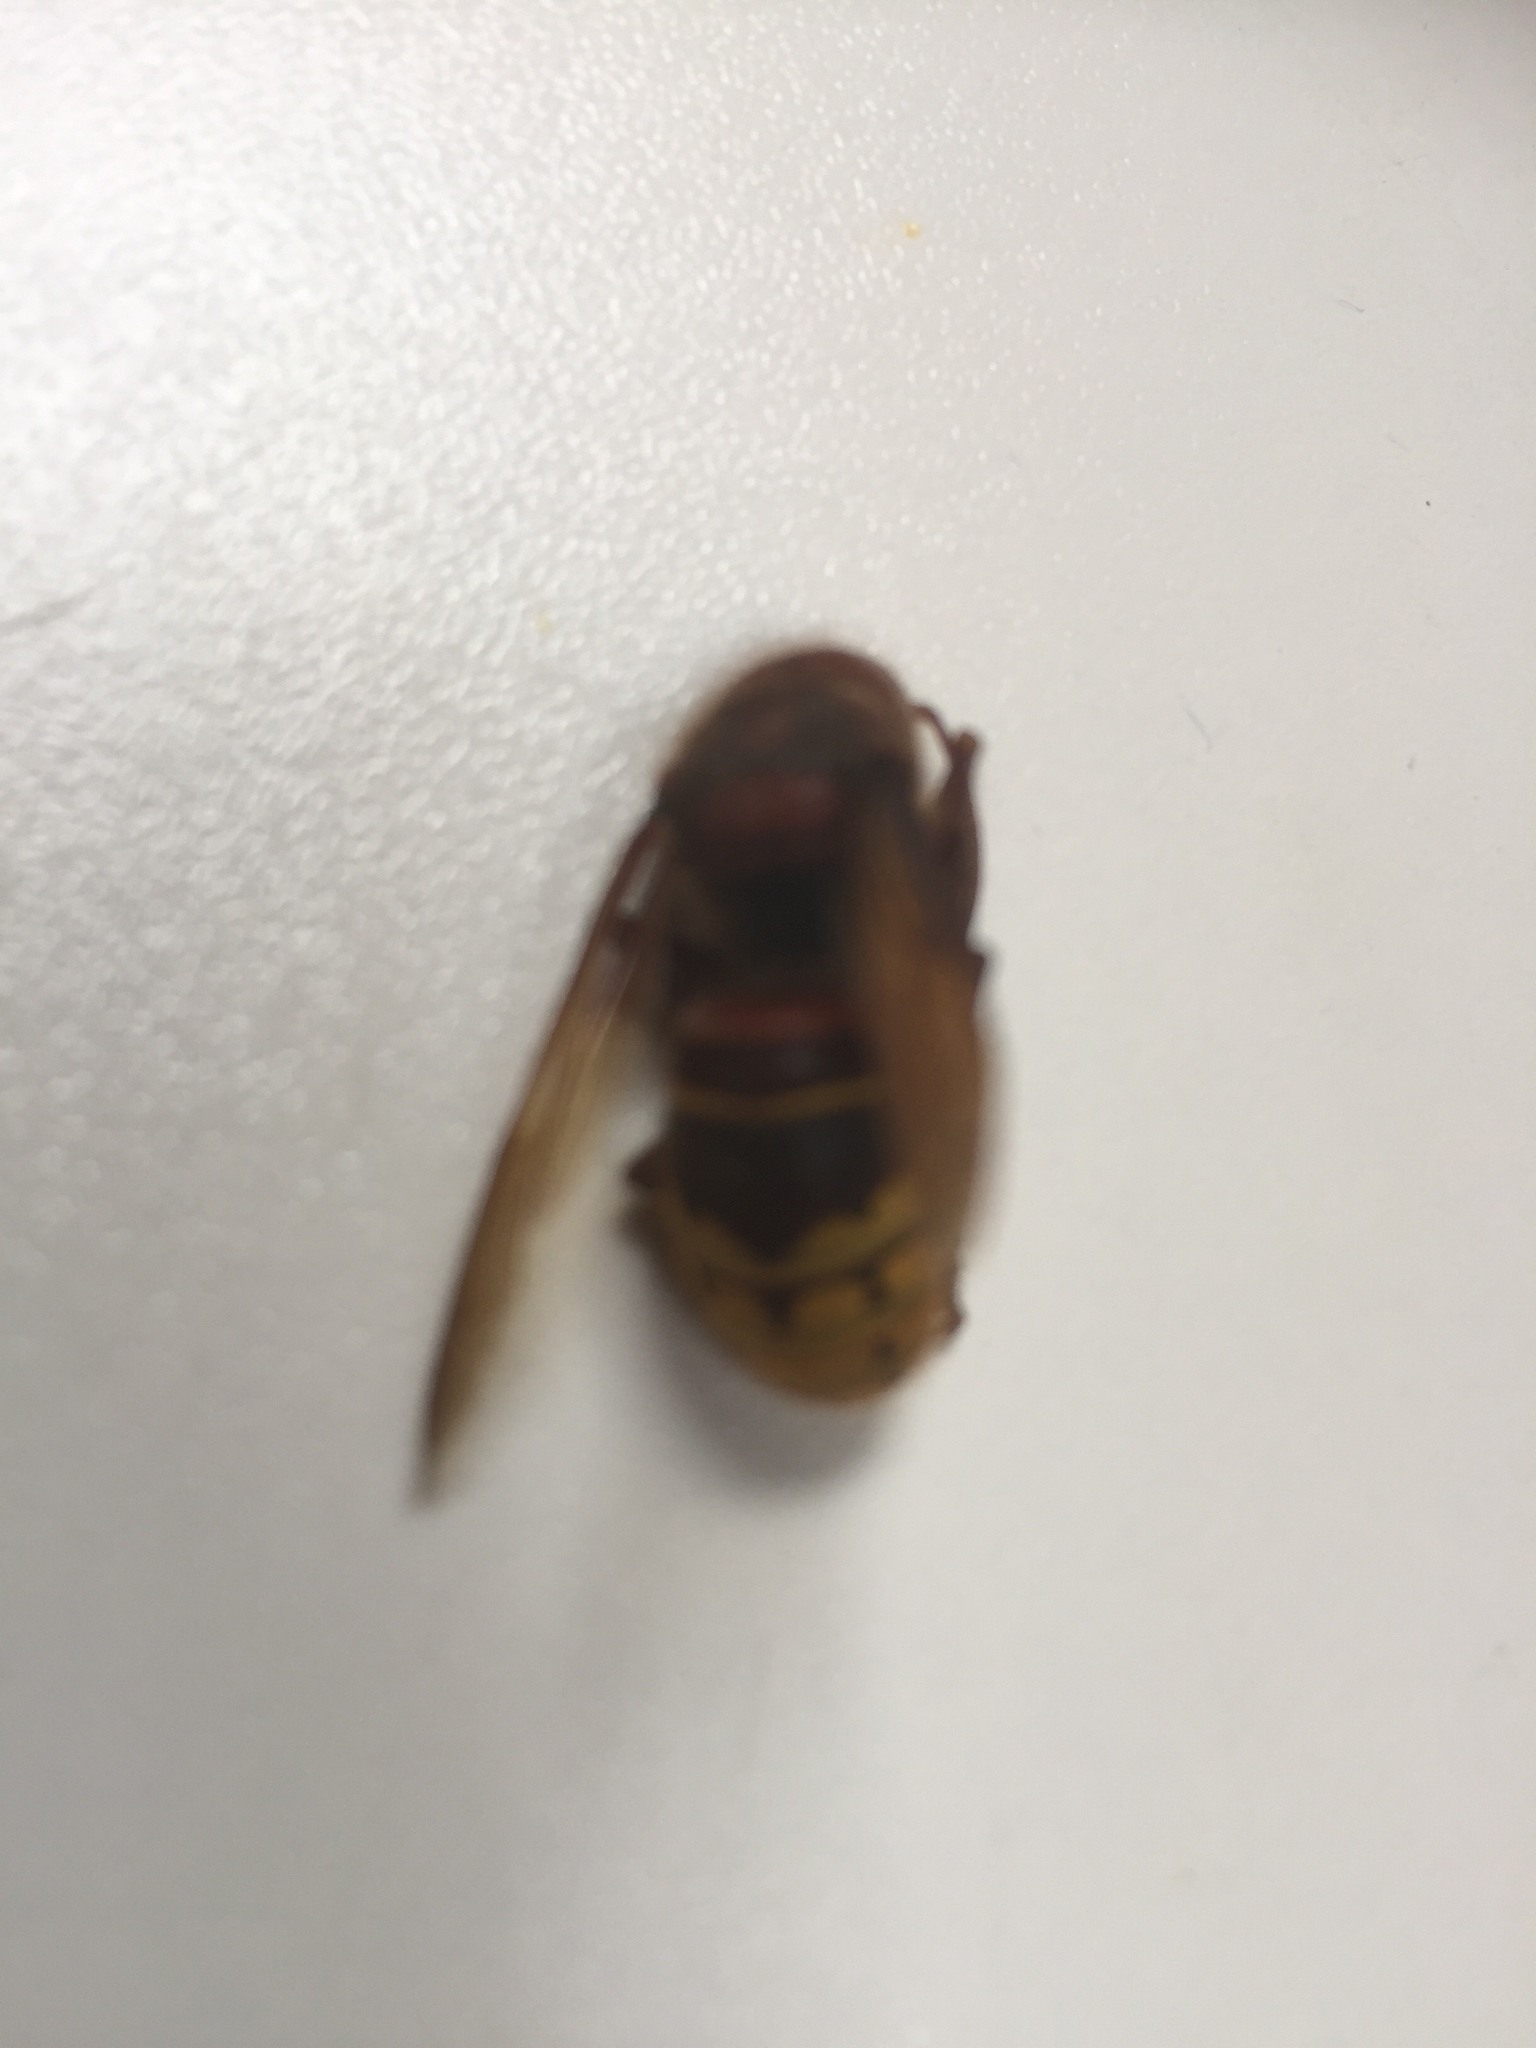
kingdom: Animalia
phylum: Arthropoda
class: Insecta
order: Hymenoptera
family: Vespidae
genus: Vespa
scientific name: Vespa crabro
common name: Hornet
